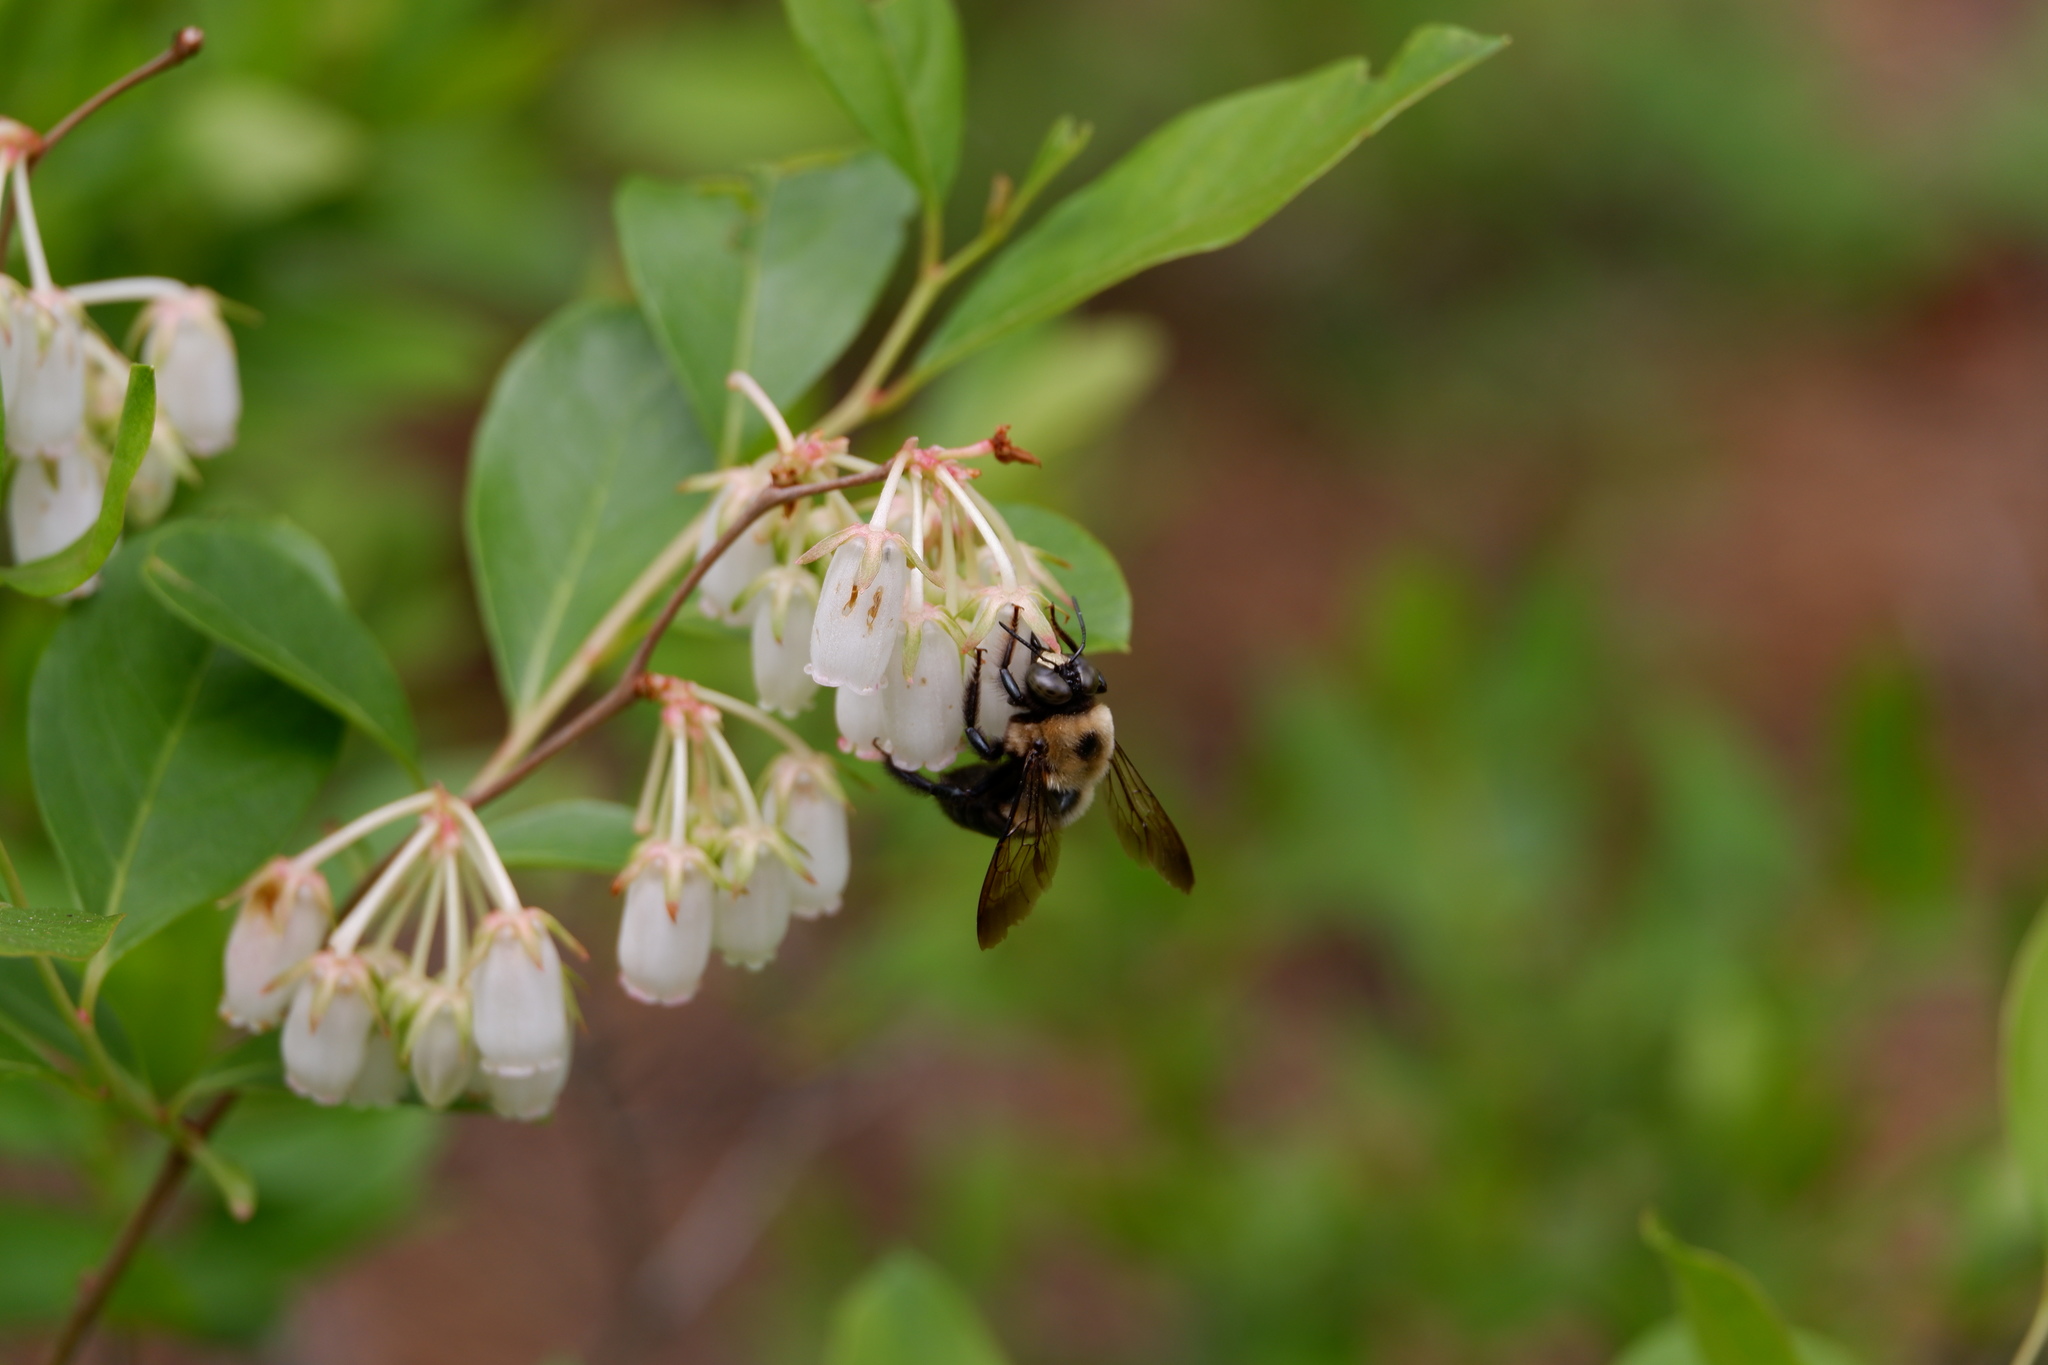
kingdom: Animalia
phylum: Arthropoda
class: Insecta
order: Hymenoptera
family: Apidae
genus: Xylocopa
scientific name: Xylocopa virginica
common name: Carpenter bee
